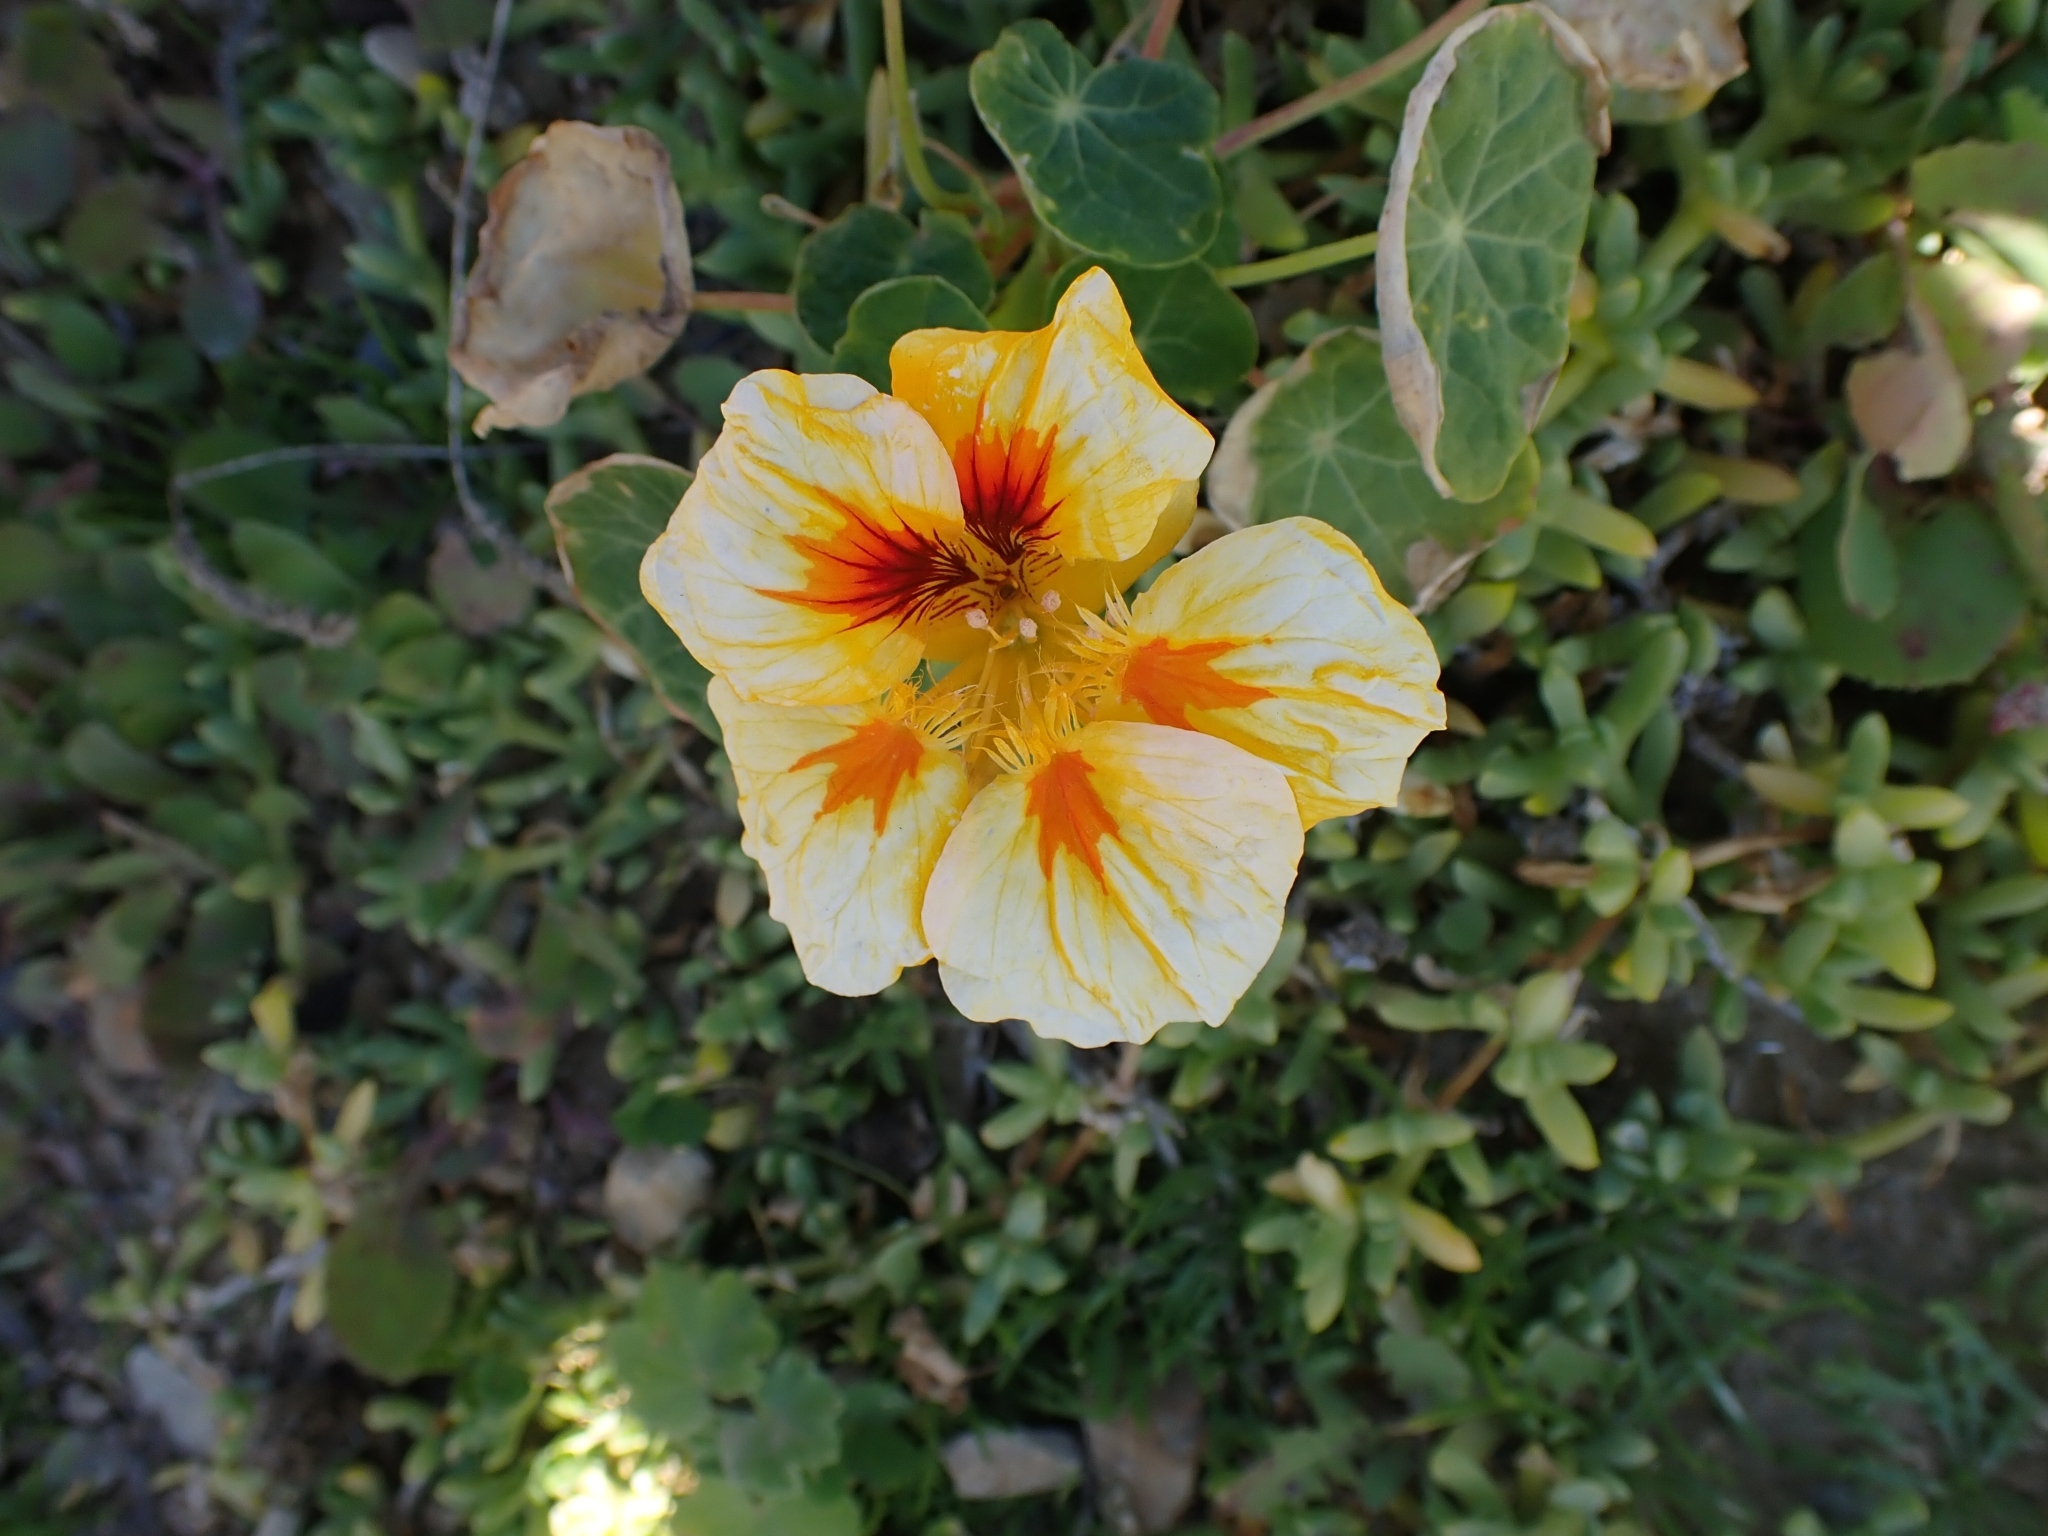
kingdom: Plantae
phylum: Tracheophyta
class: Magnoliopsida
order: Brassicales
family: Tropaeolaceae
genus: Tropaeolum
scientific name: Tropaeolum majus
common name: Nasturtium
